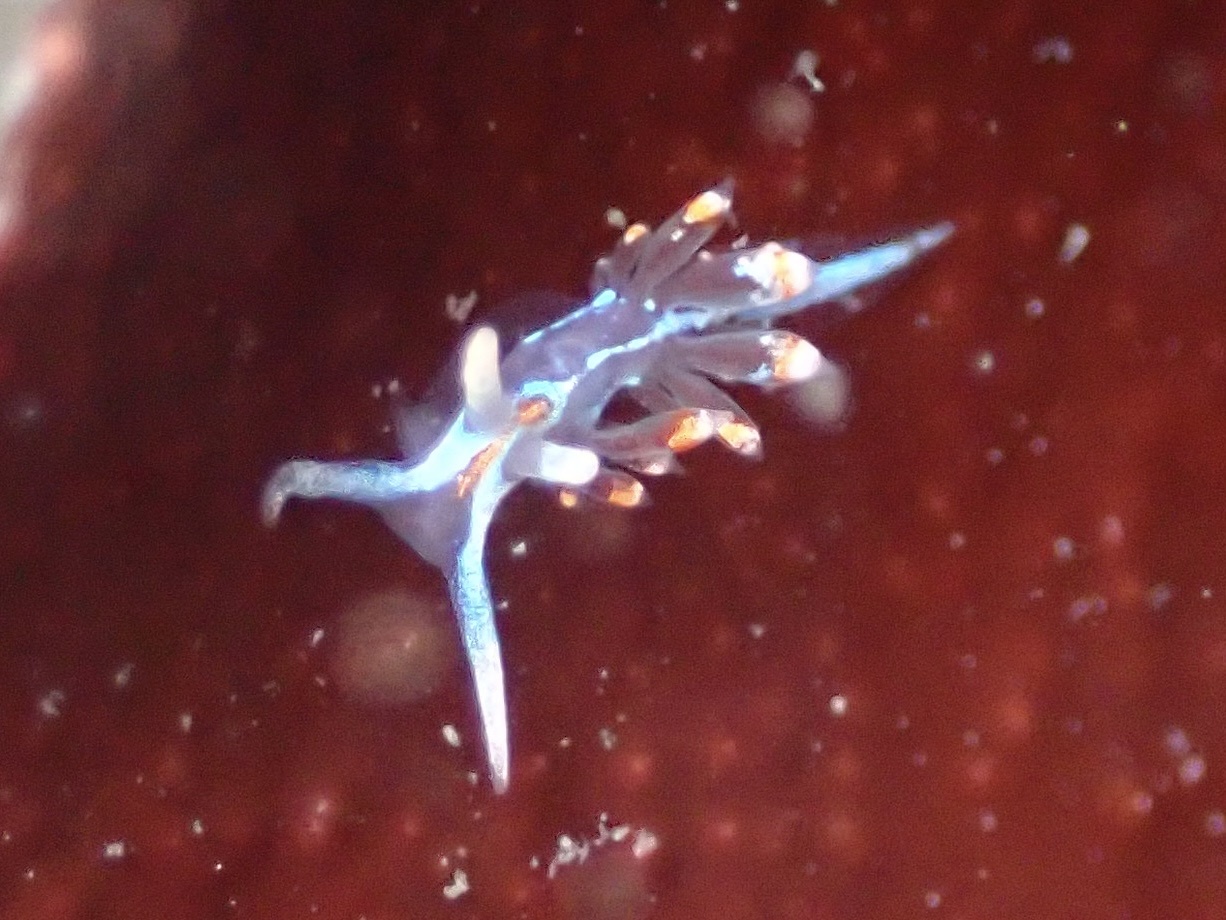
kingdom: Animalia
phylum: Mollusca
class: Gastropoda
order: Nudibranchia
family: Myrrhinidae
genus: Hermissenda
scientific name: Hermissenda opalescens
